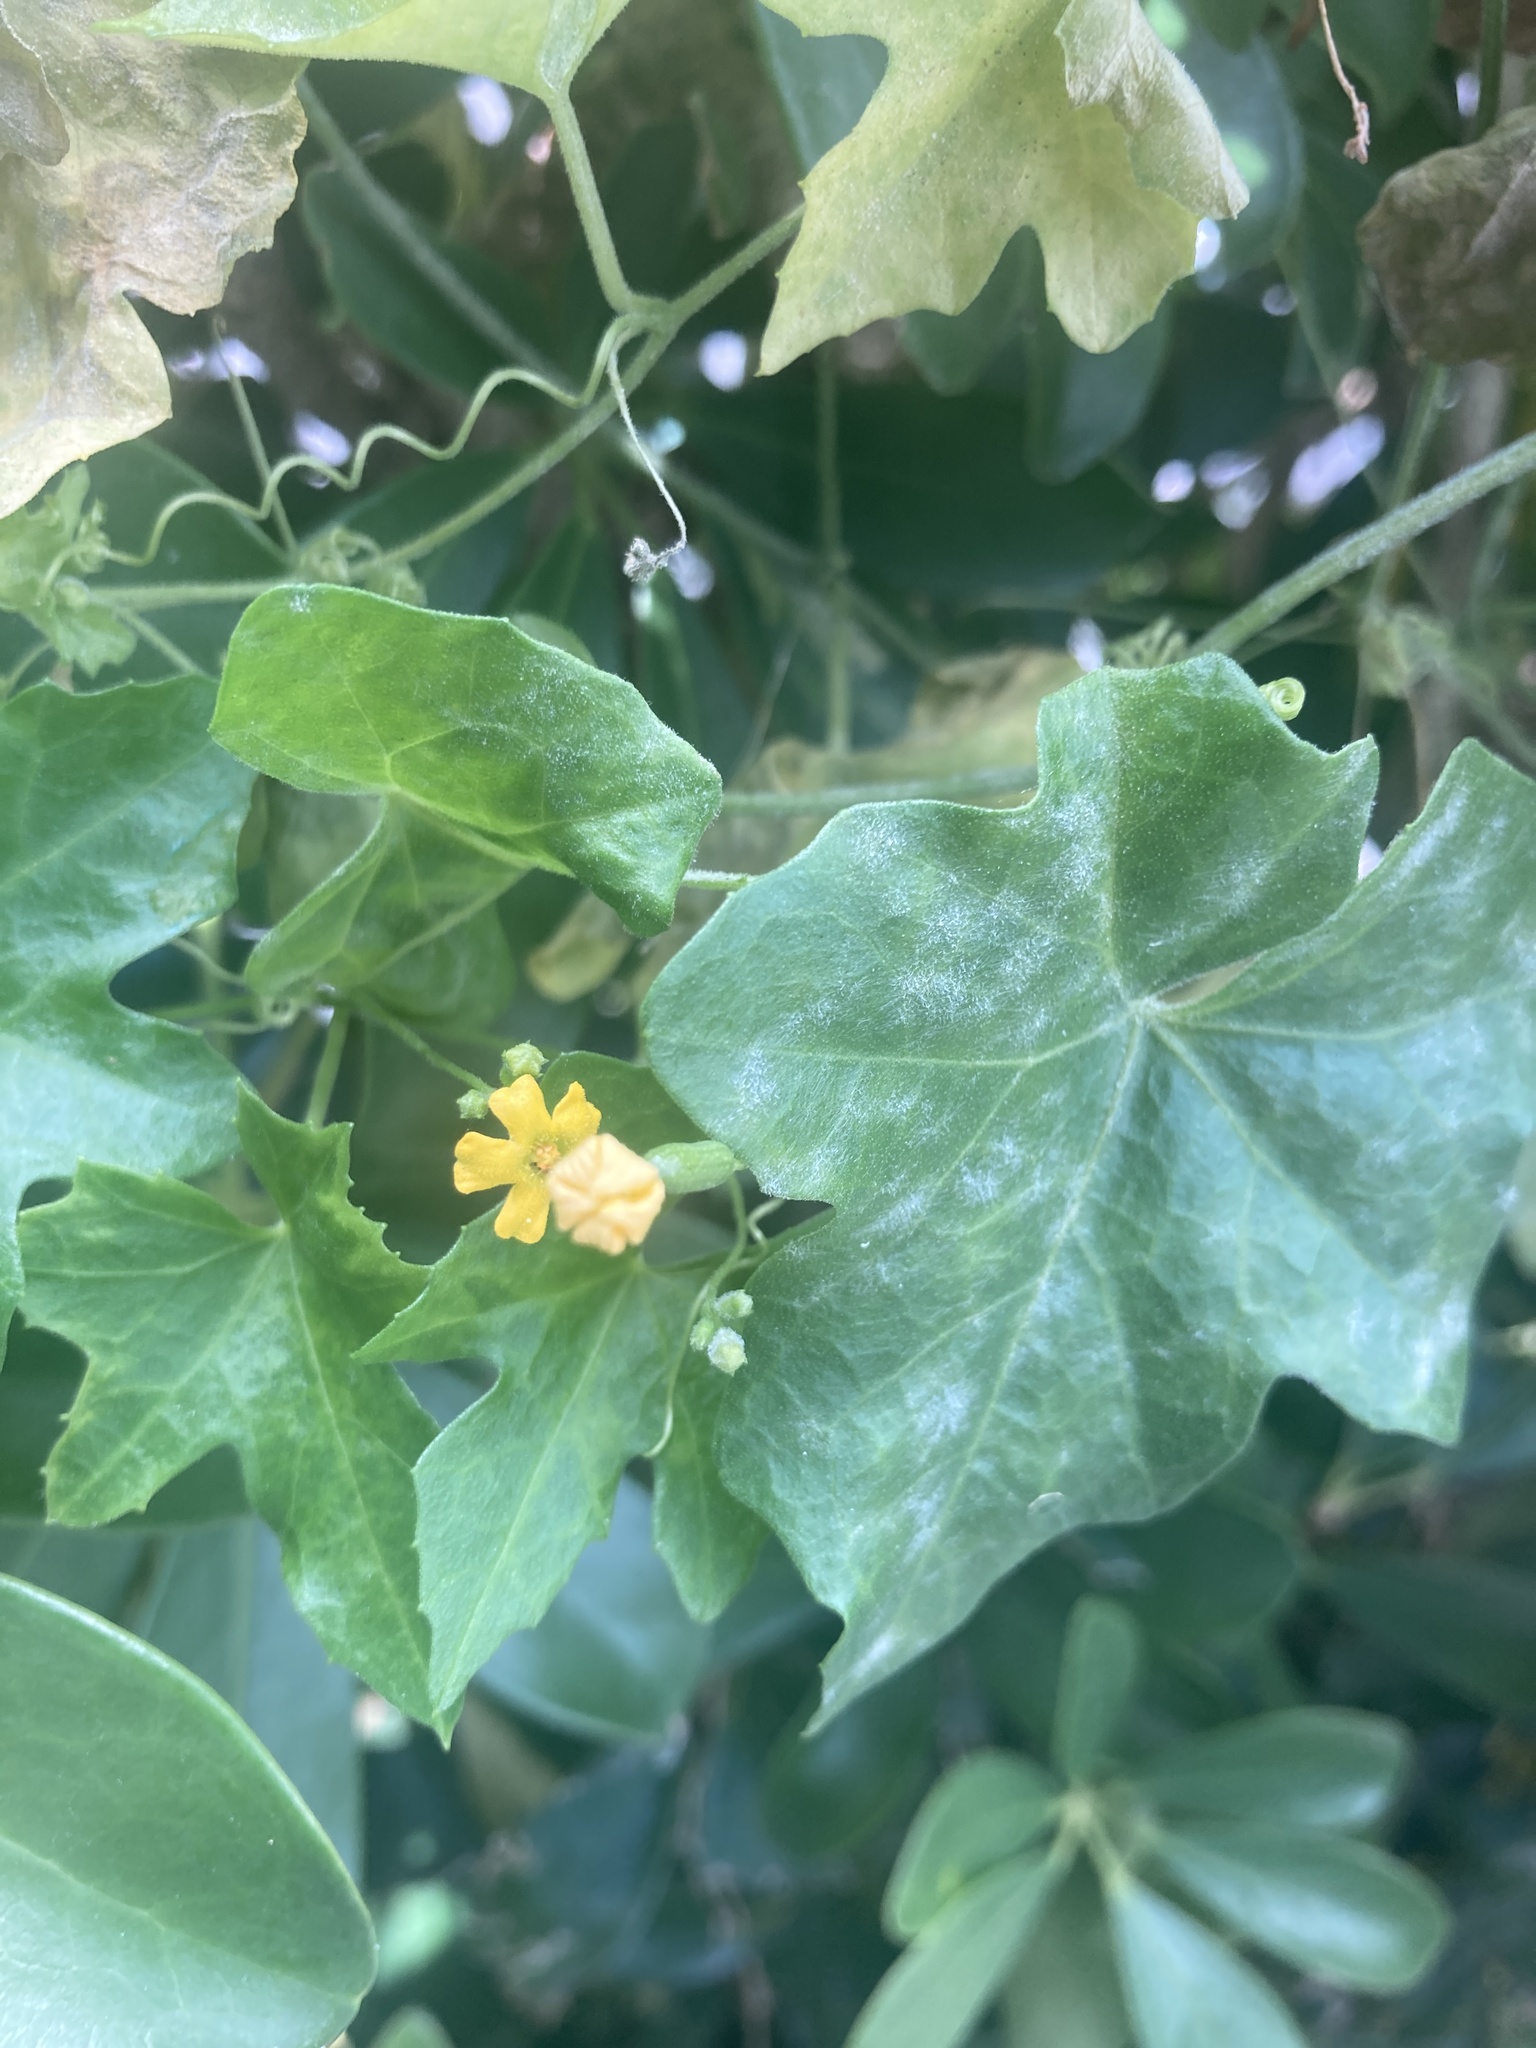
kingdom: Plantae
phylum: Tracheophyta
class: Magnoliopsida
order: Cucurbitales
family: Cucurbitaceae
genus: Melothria
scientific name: Melothria pendula
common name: Creeping-cucumber
